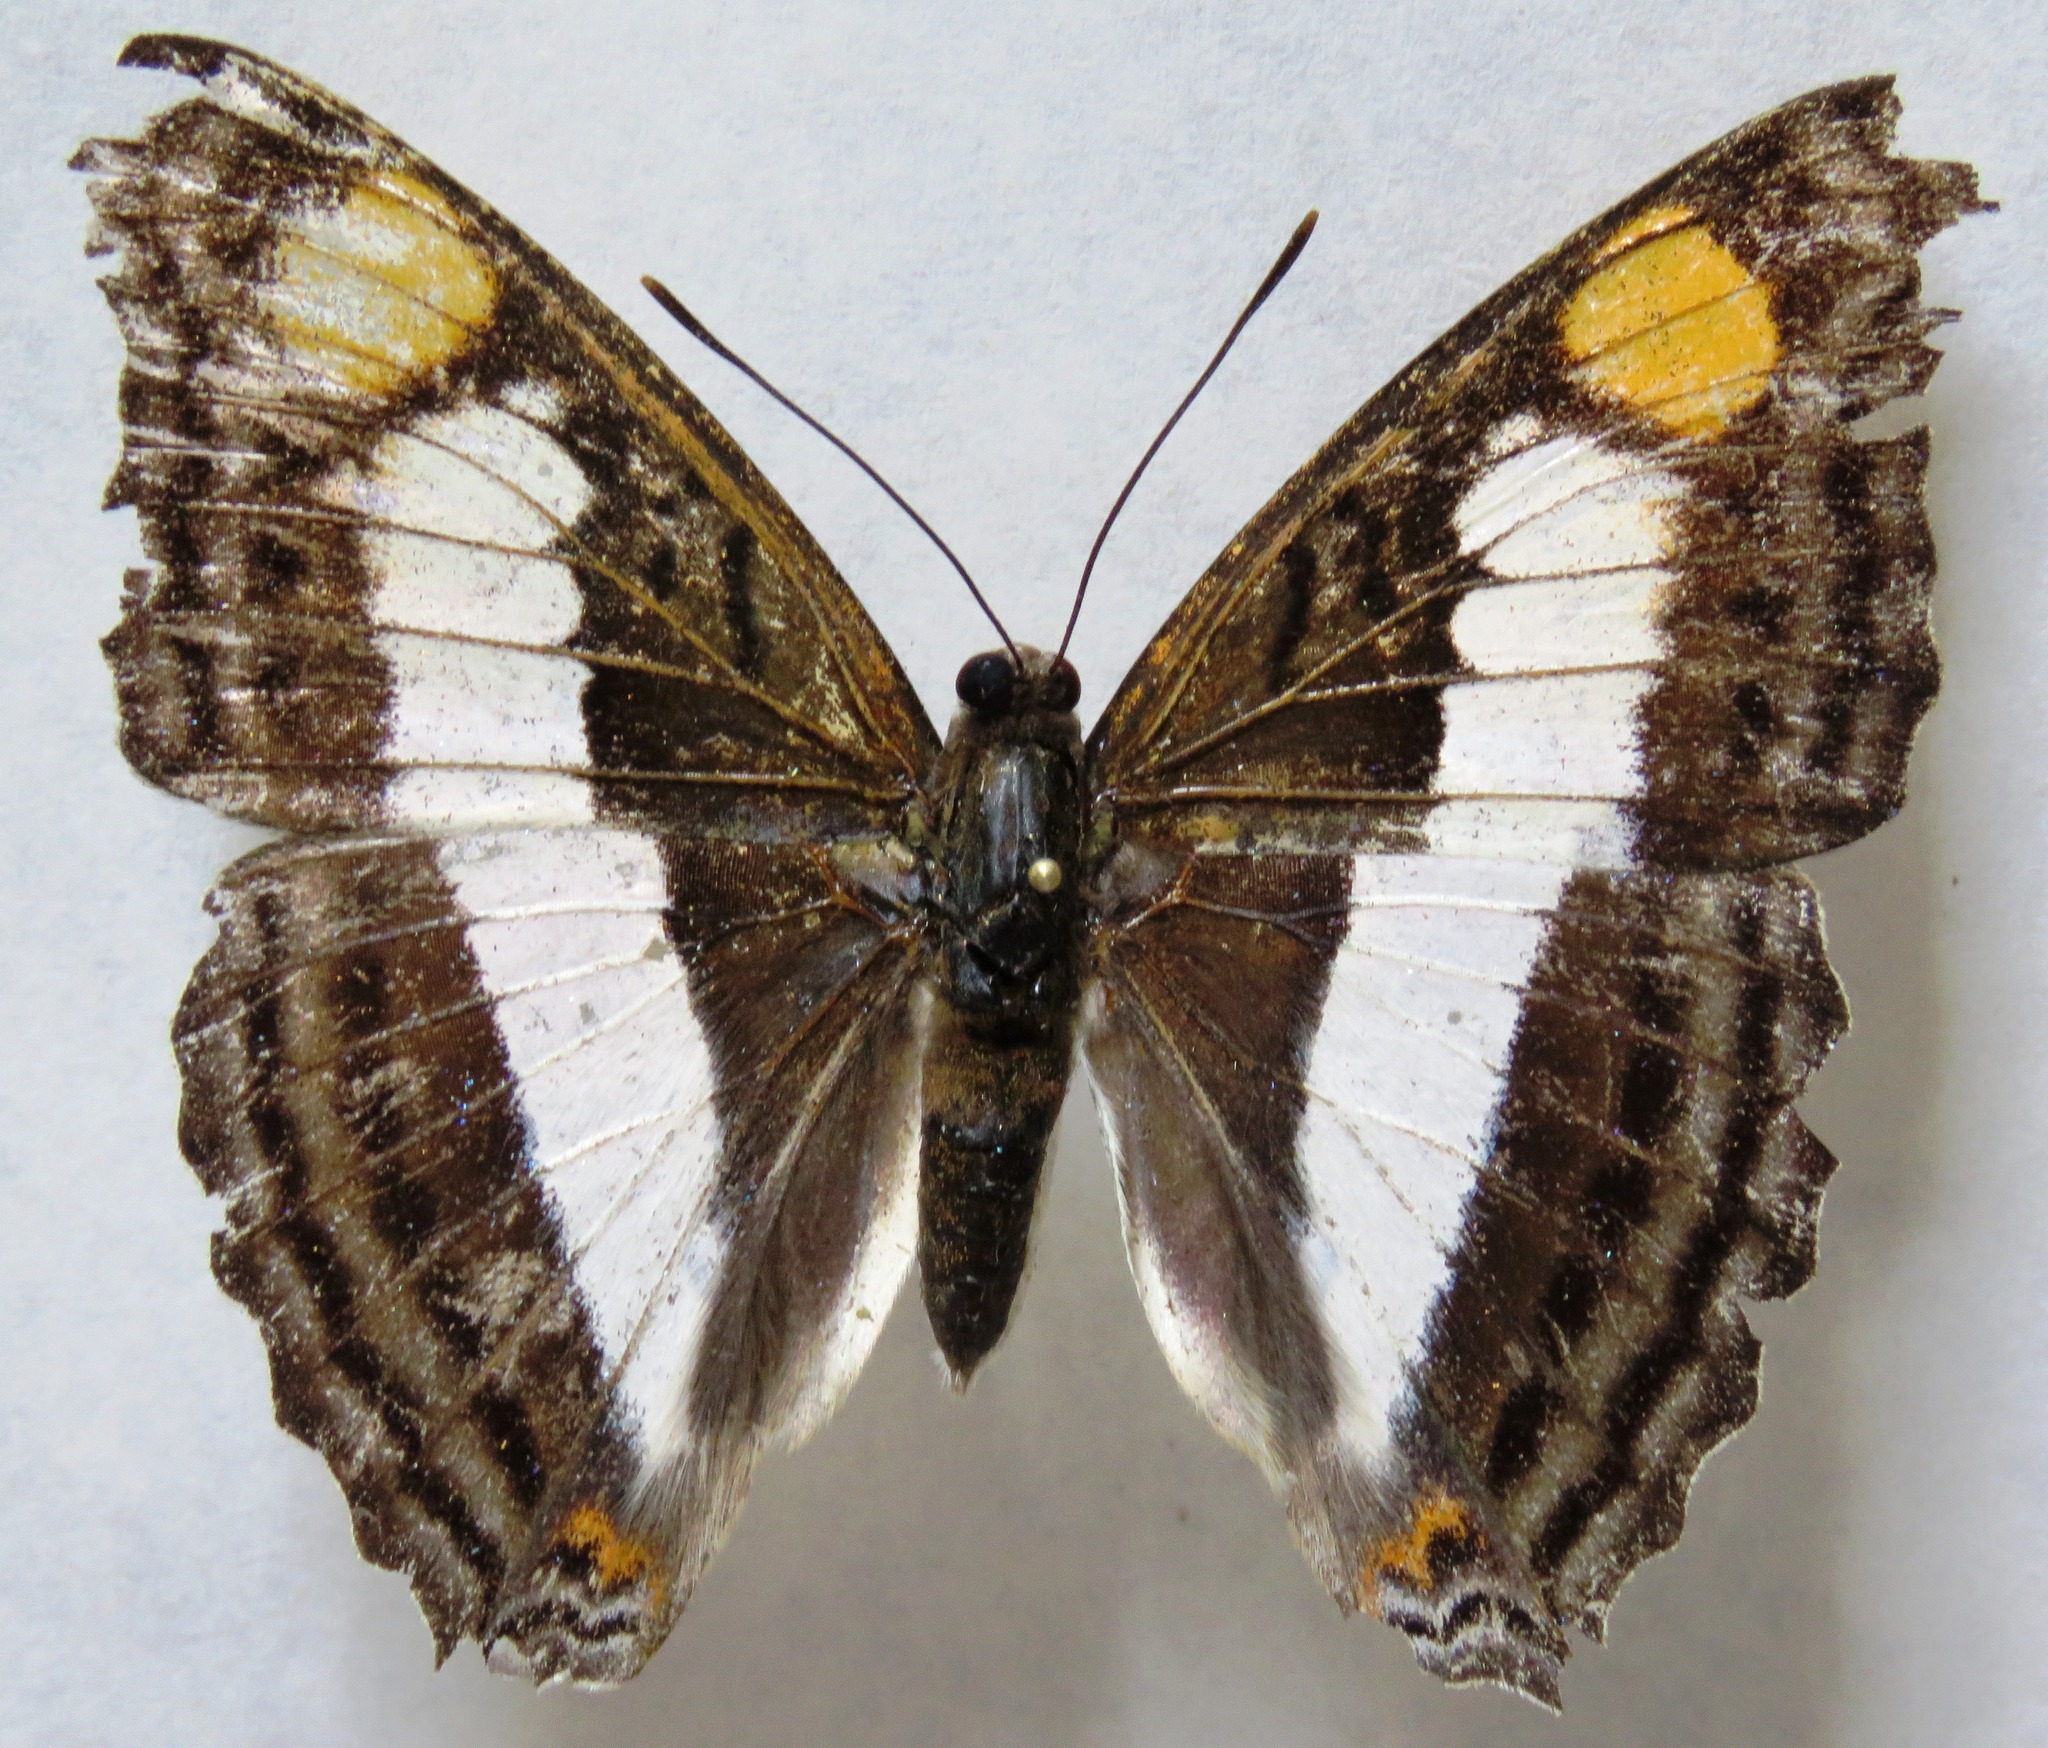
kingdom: Animalia
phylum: Arthropoda
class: Insecta
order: Lepidoptera
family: Nymphalidae
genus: Doxocopa
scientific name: Doxocopa laure
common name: Silver emperor
